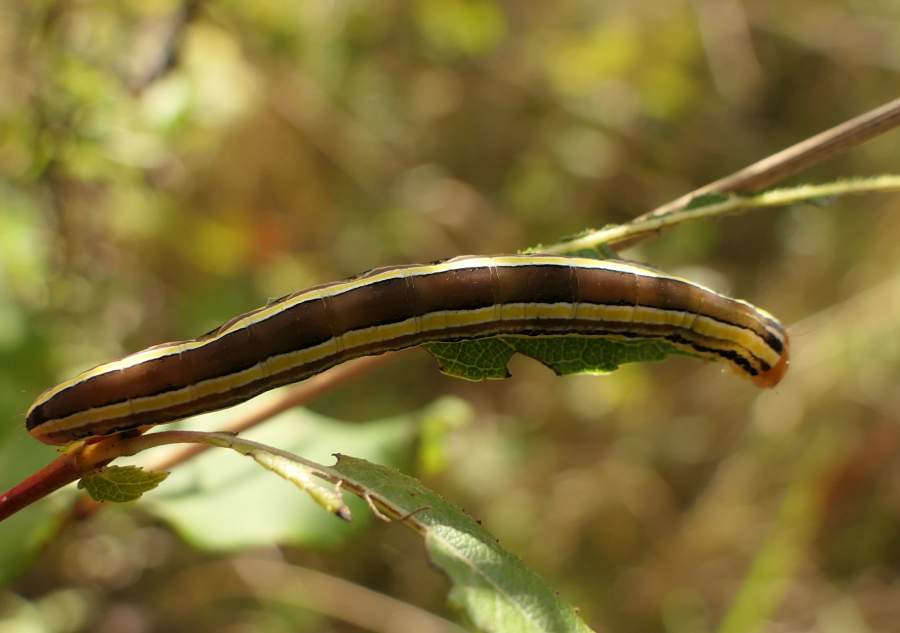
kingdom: Animalia
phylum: Arthropoda
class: Insecta
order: Lepidoptera
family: Noctuidae
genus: Trichordestra
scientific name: Trichordestra legitima
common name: Striped garden caterpillar
